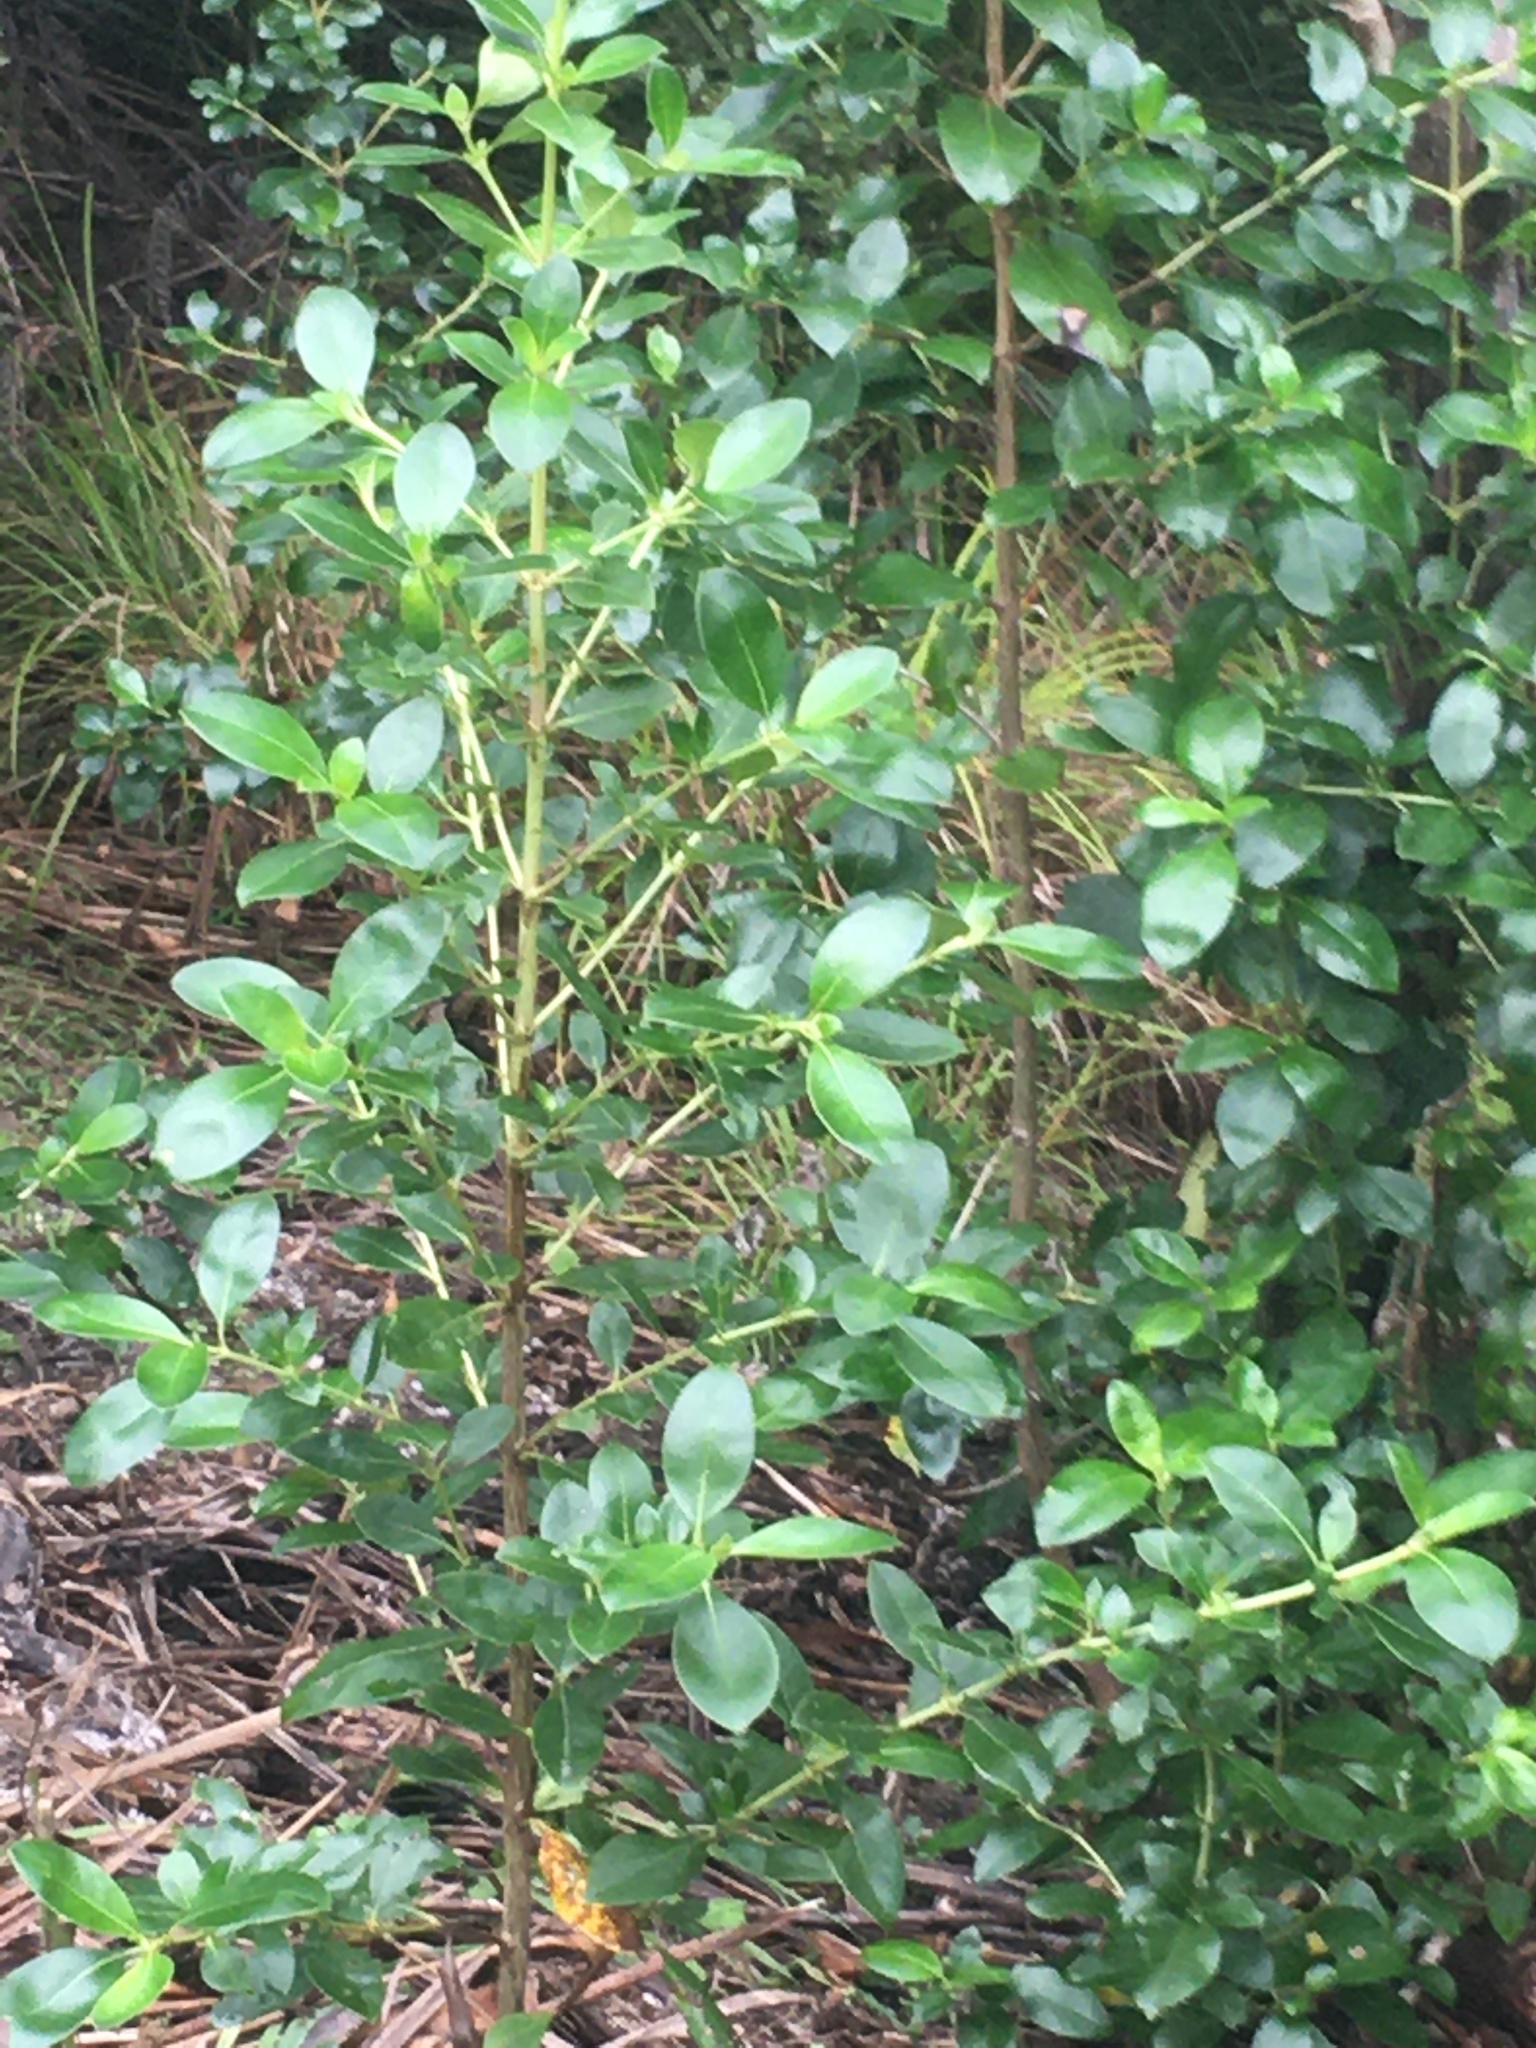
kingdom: Plantae
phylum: Tracheophyta
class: Magnoliopsida
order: Gentianales
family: Rubiaceae
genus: Coprosma
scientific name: Coprosma robusta
